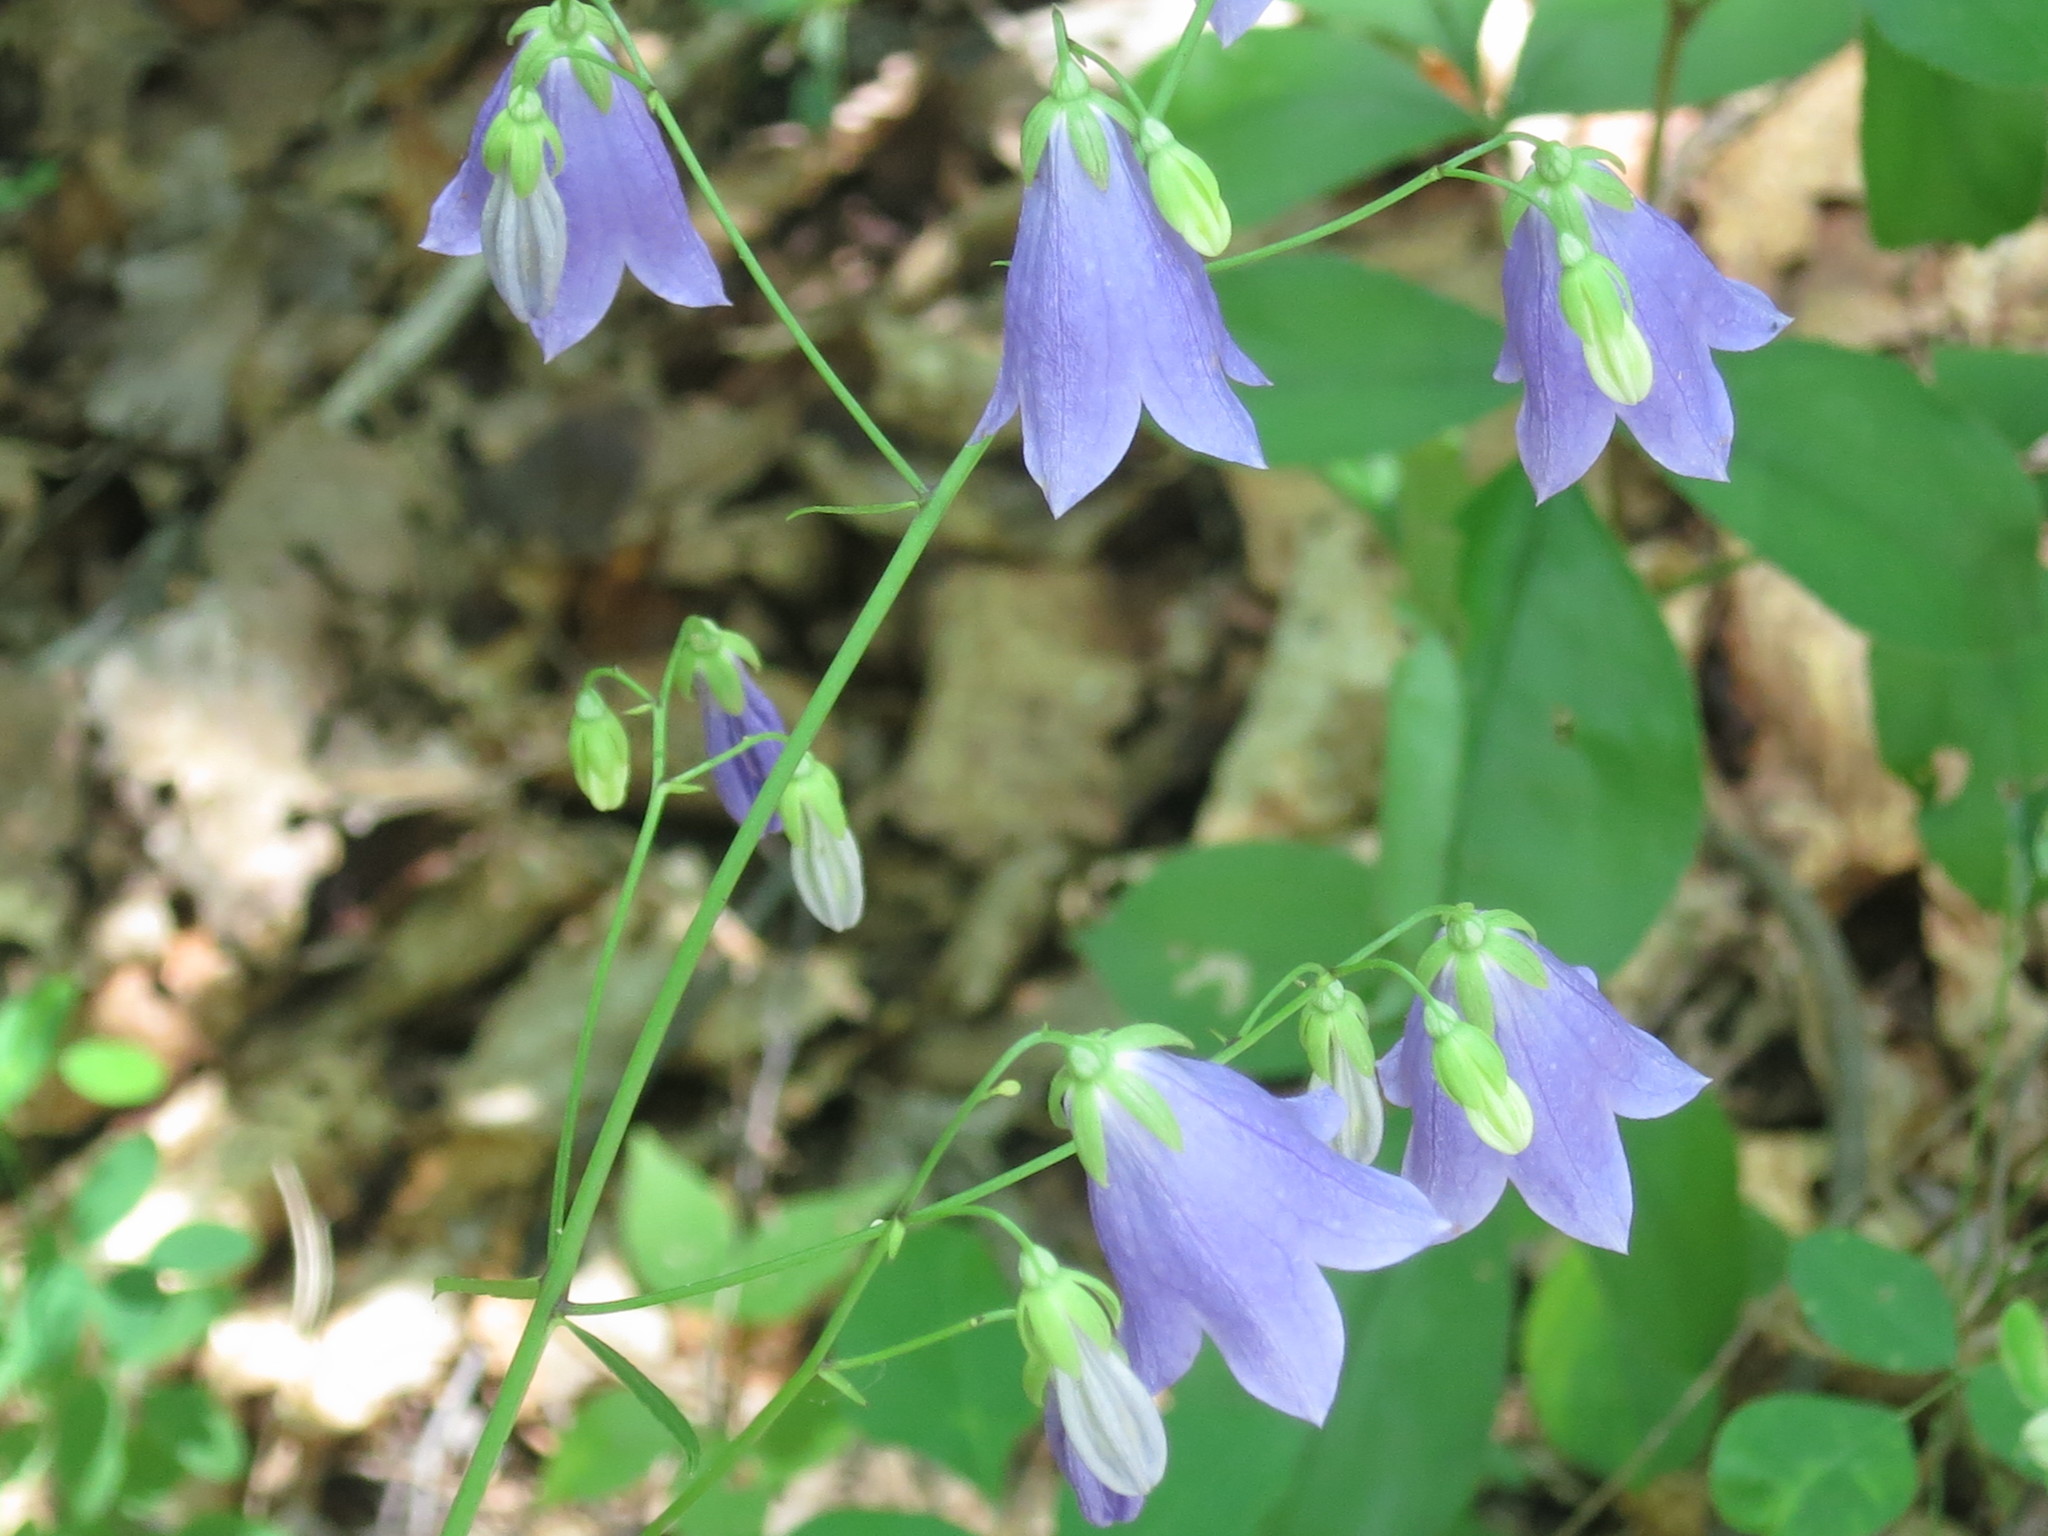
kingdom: Plantae
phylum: Tracheophyta
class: Magnoliopsida
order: Asterales
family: Campanulaceae
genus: Adenophora
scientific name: Adenophora divaricata
